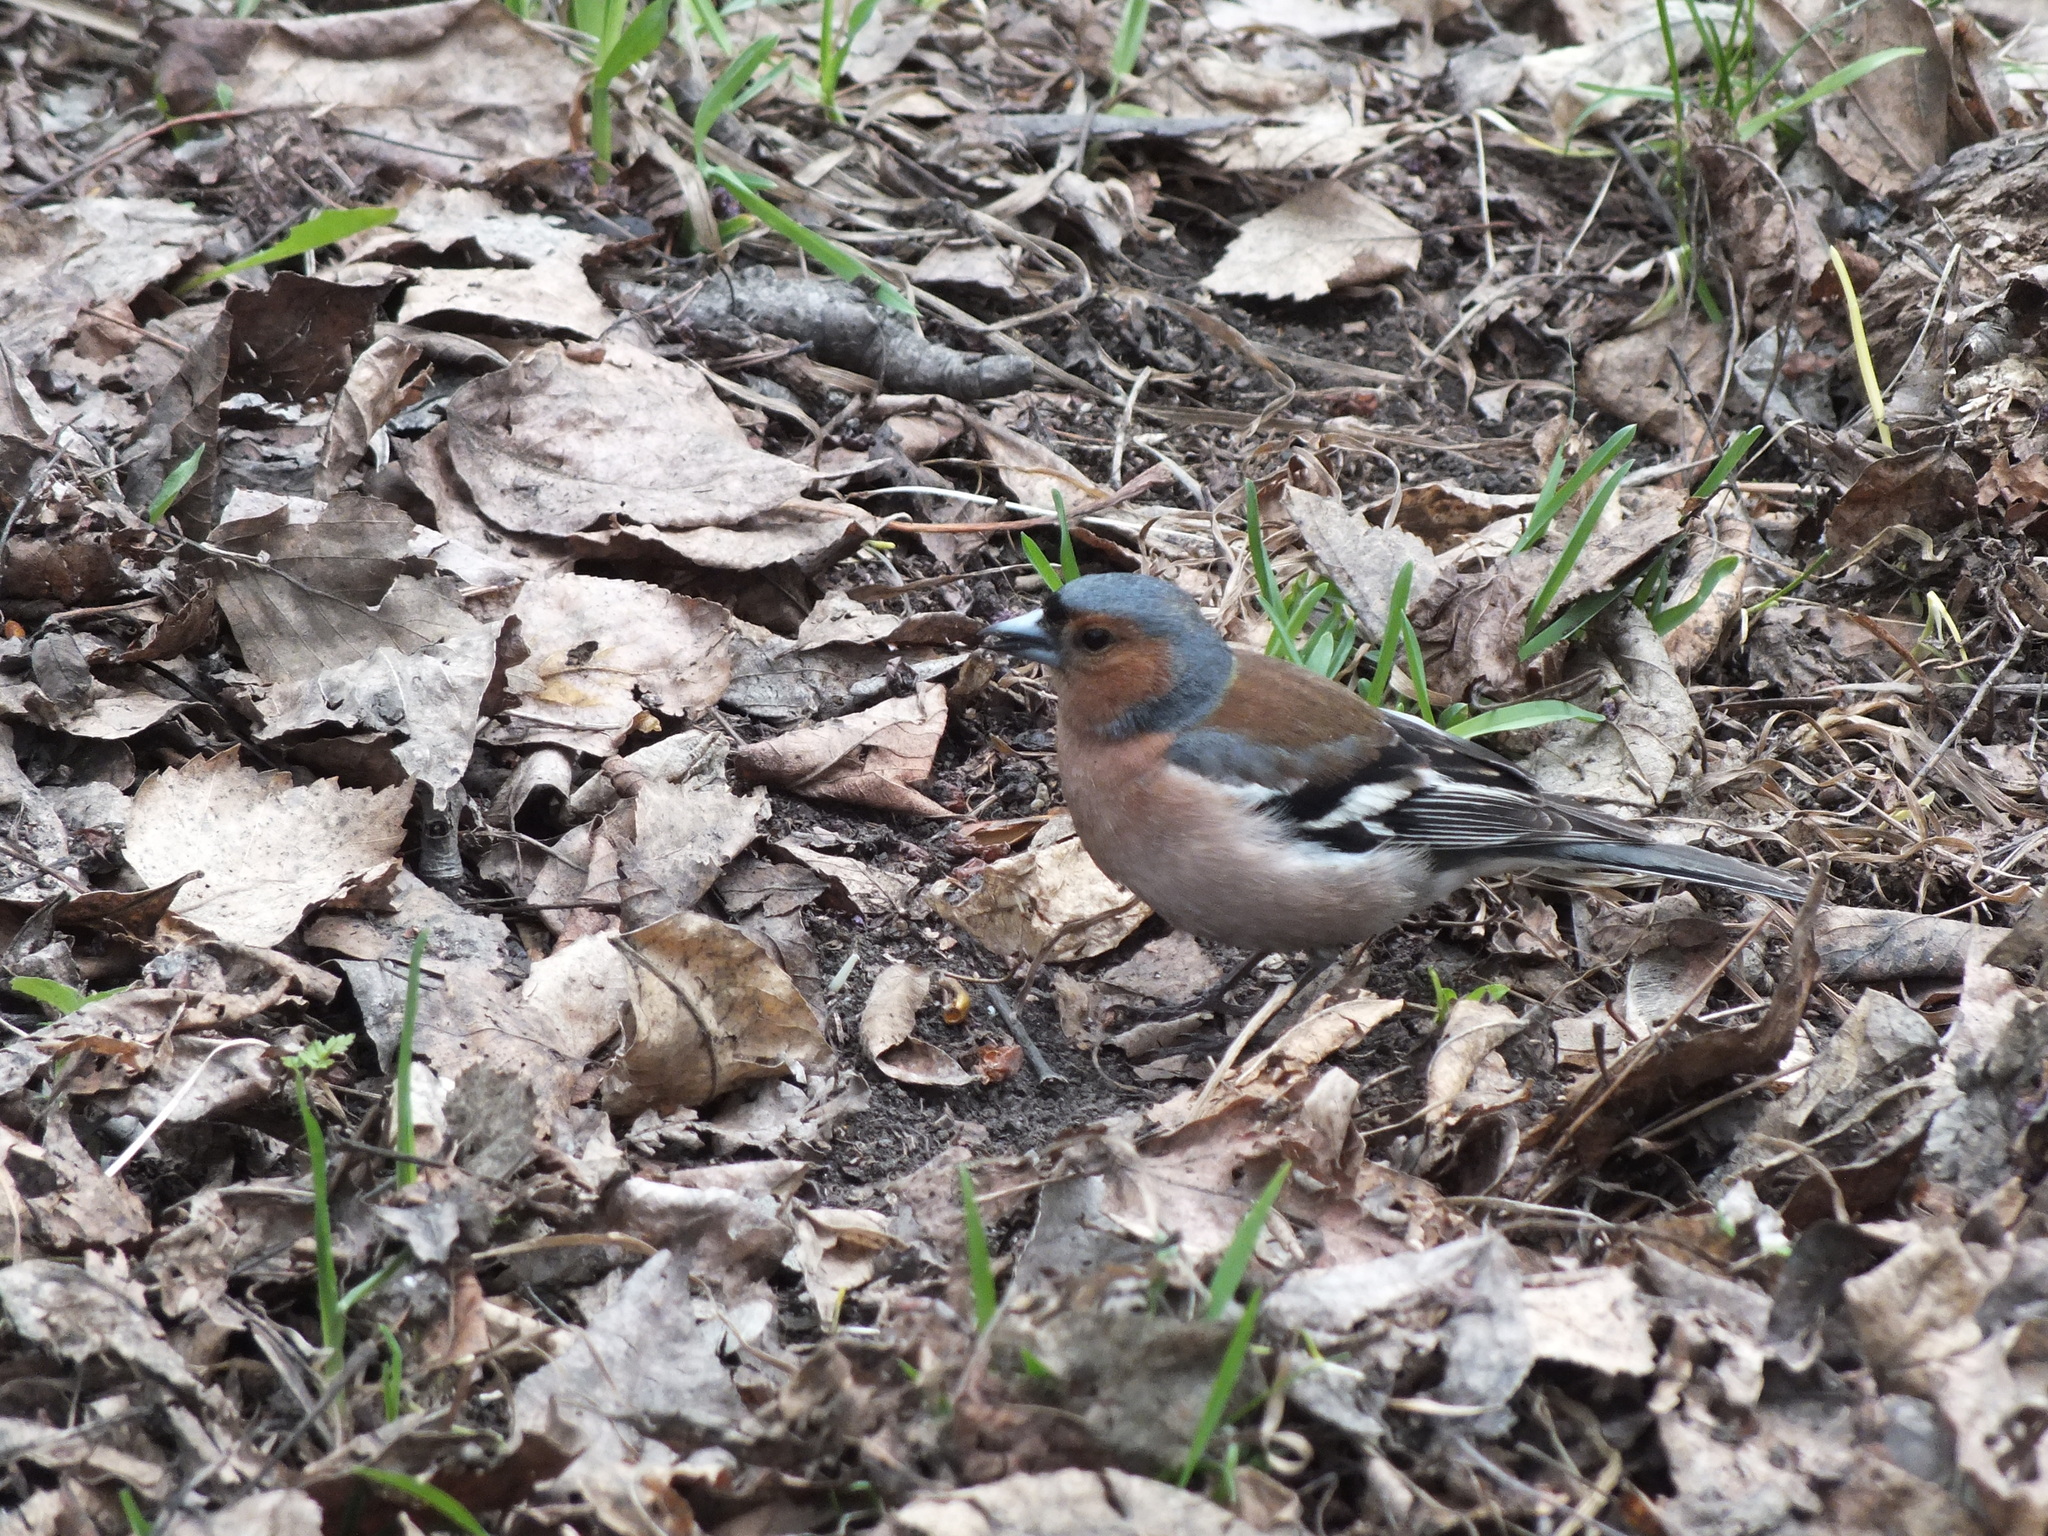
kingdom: Animalia
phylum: Chordata
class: Aves
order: Passeriformes
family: Fringillidae
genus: Fringilla
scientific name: Fringilla coelebs
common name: Common chaffinch
